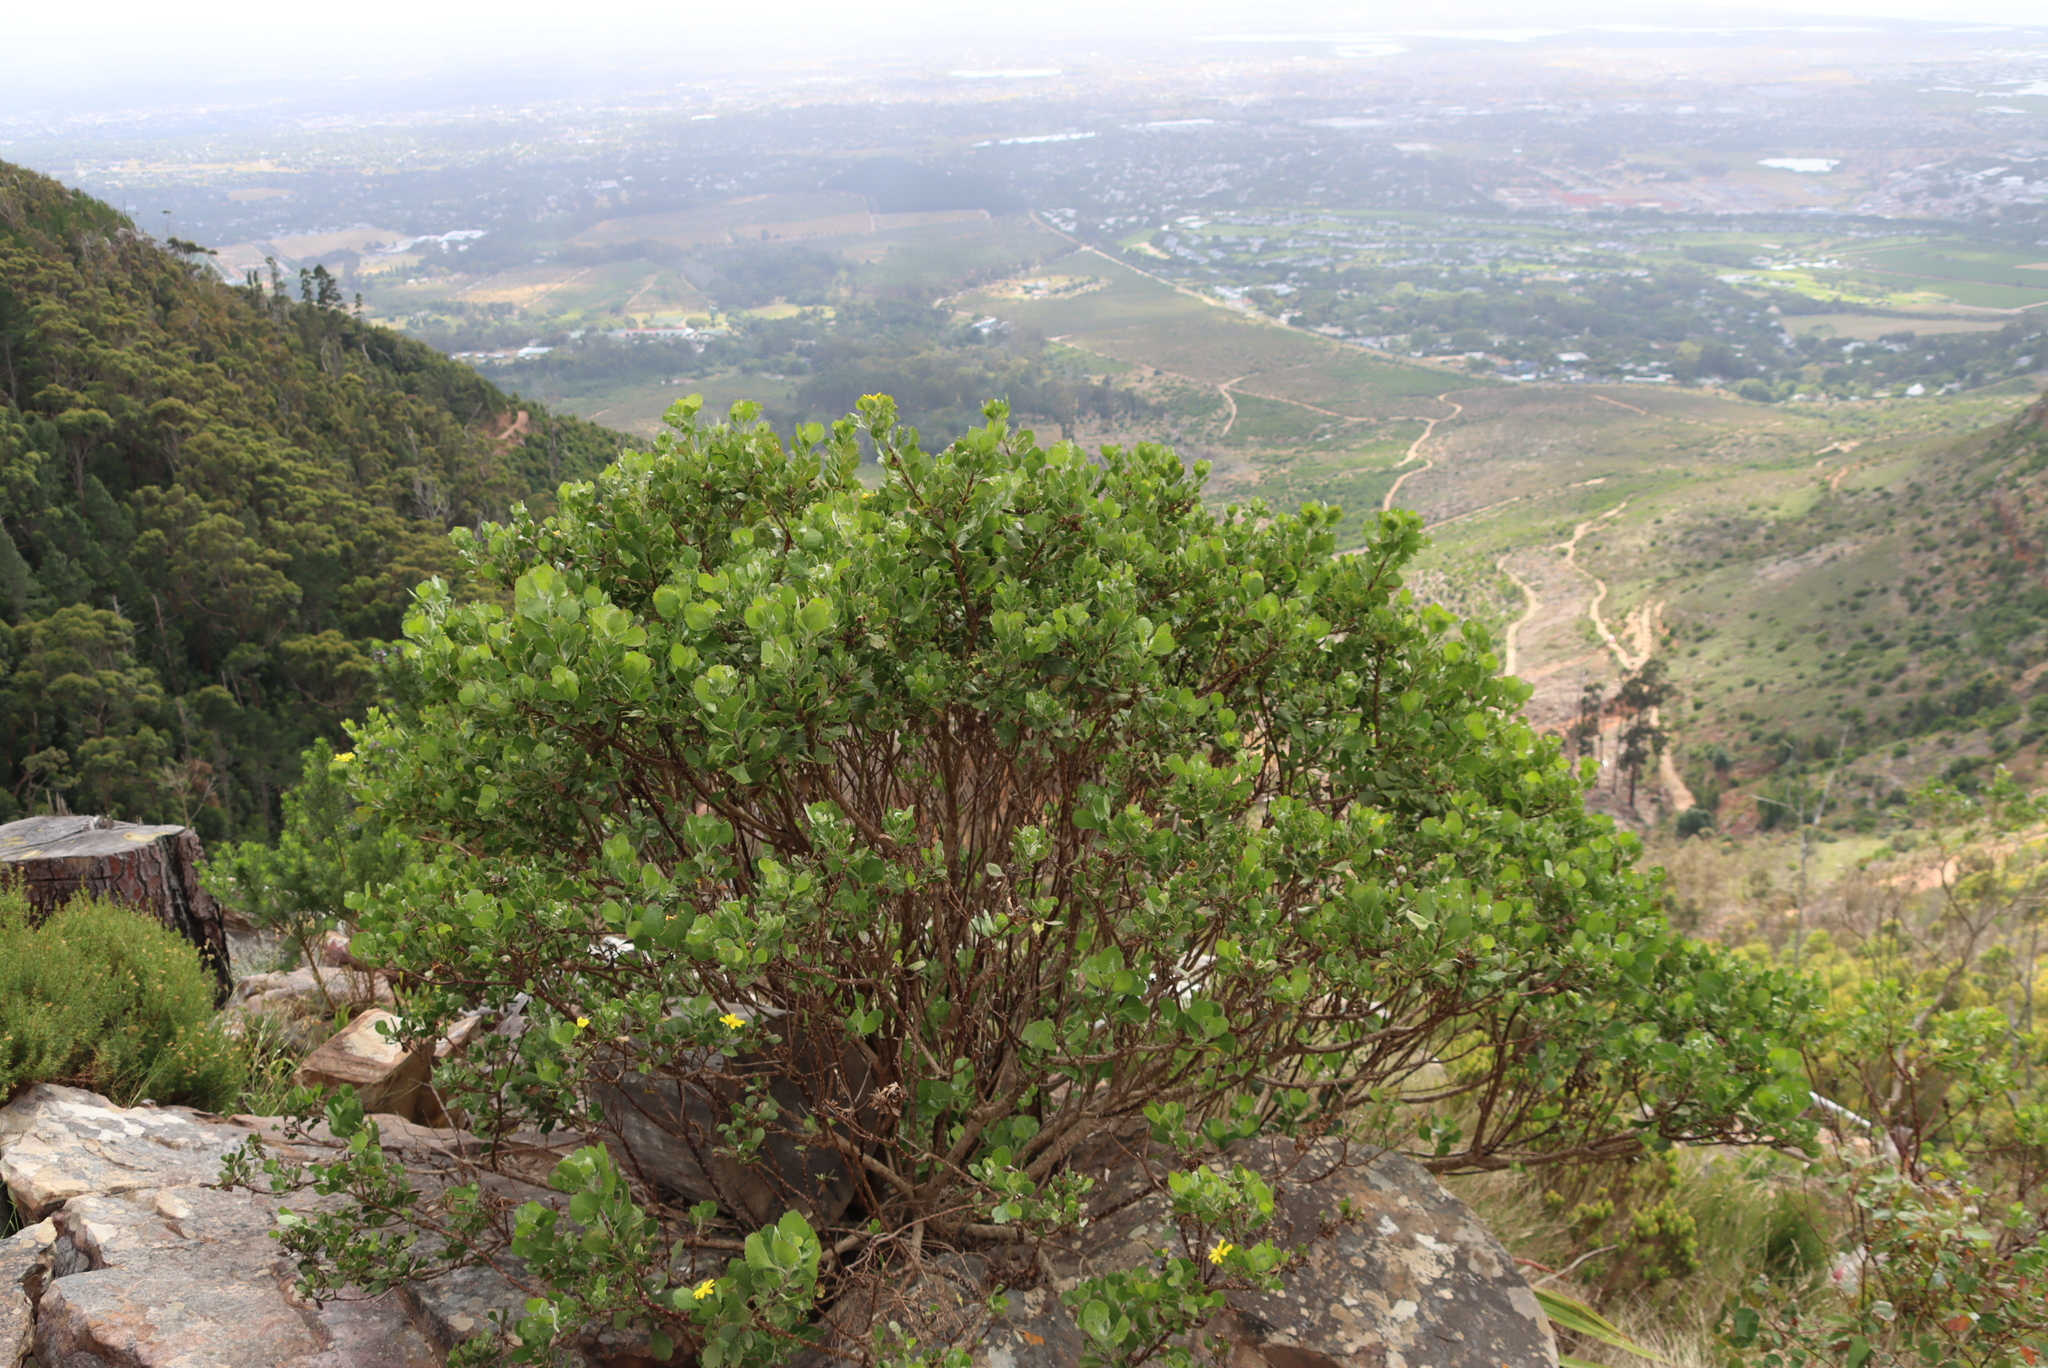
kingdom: Plantae
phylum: Tracheophyta
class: Magnoliopsida
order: Asterales
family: Asteraceae
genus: Osteospermum
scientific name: Osteospermum moniliferum
